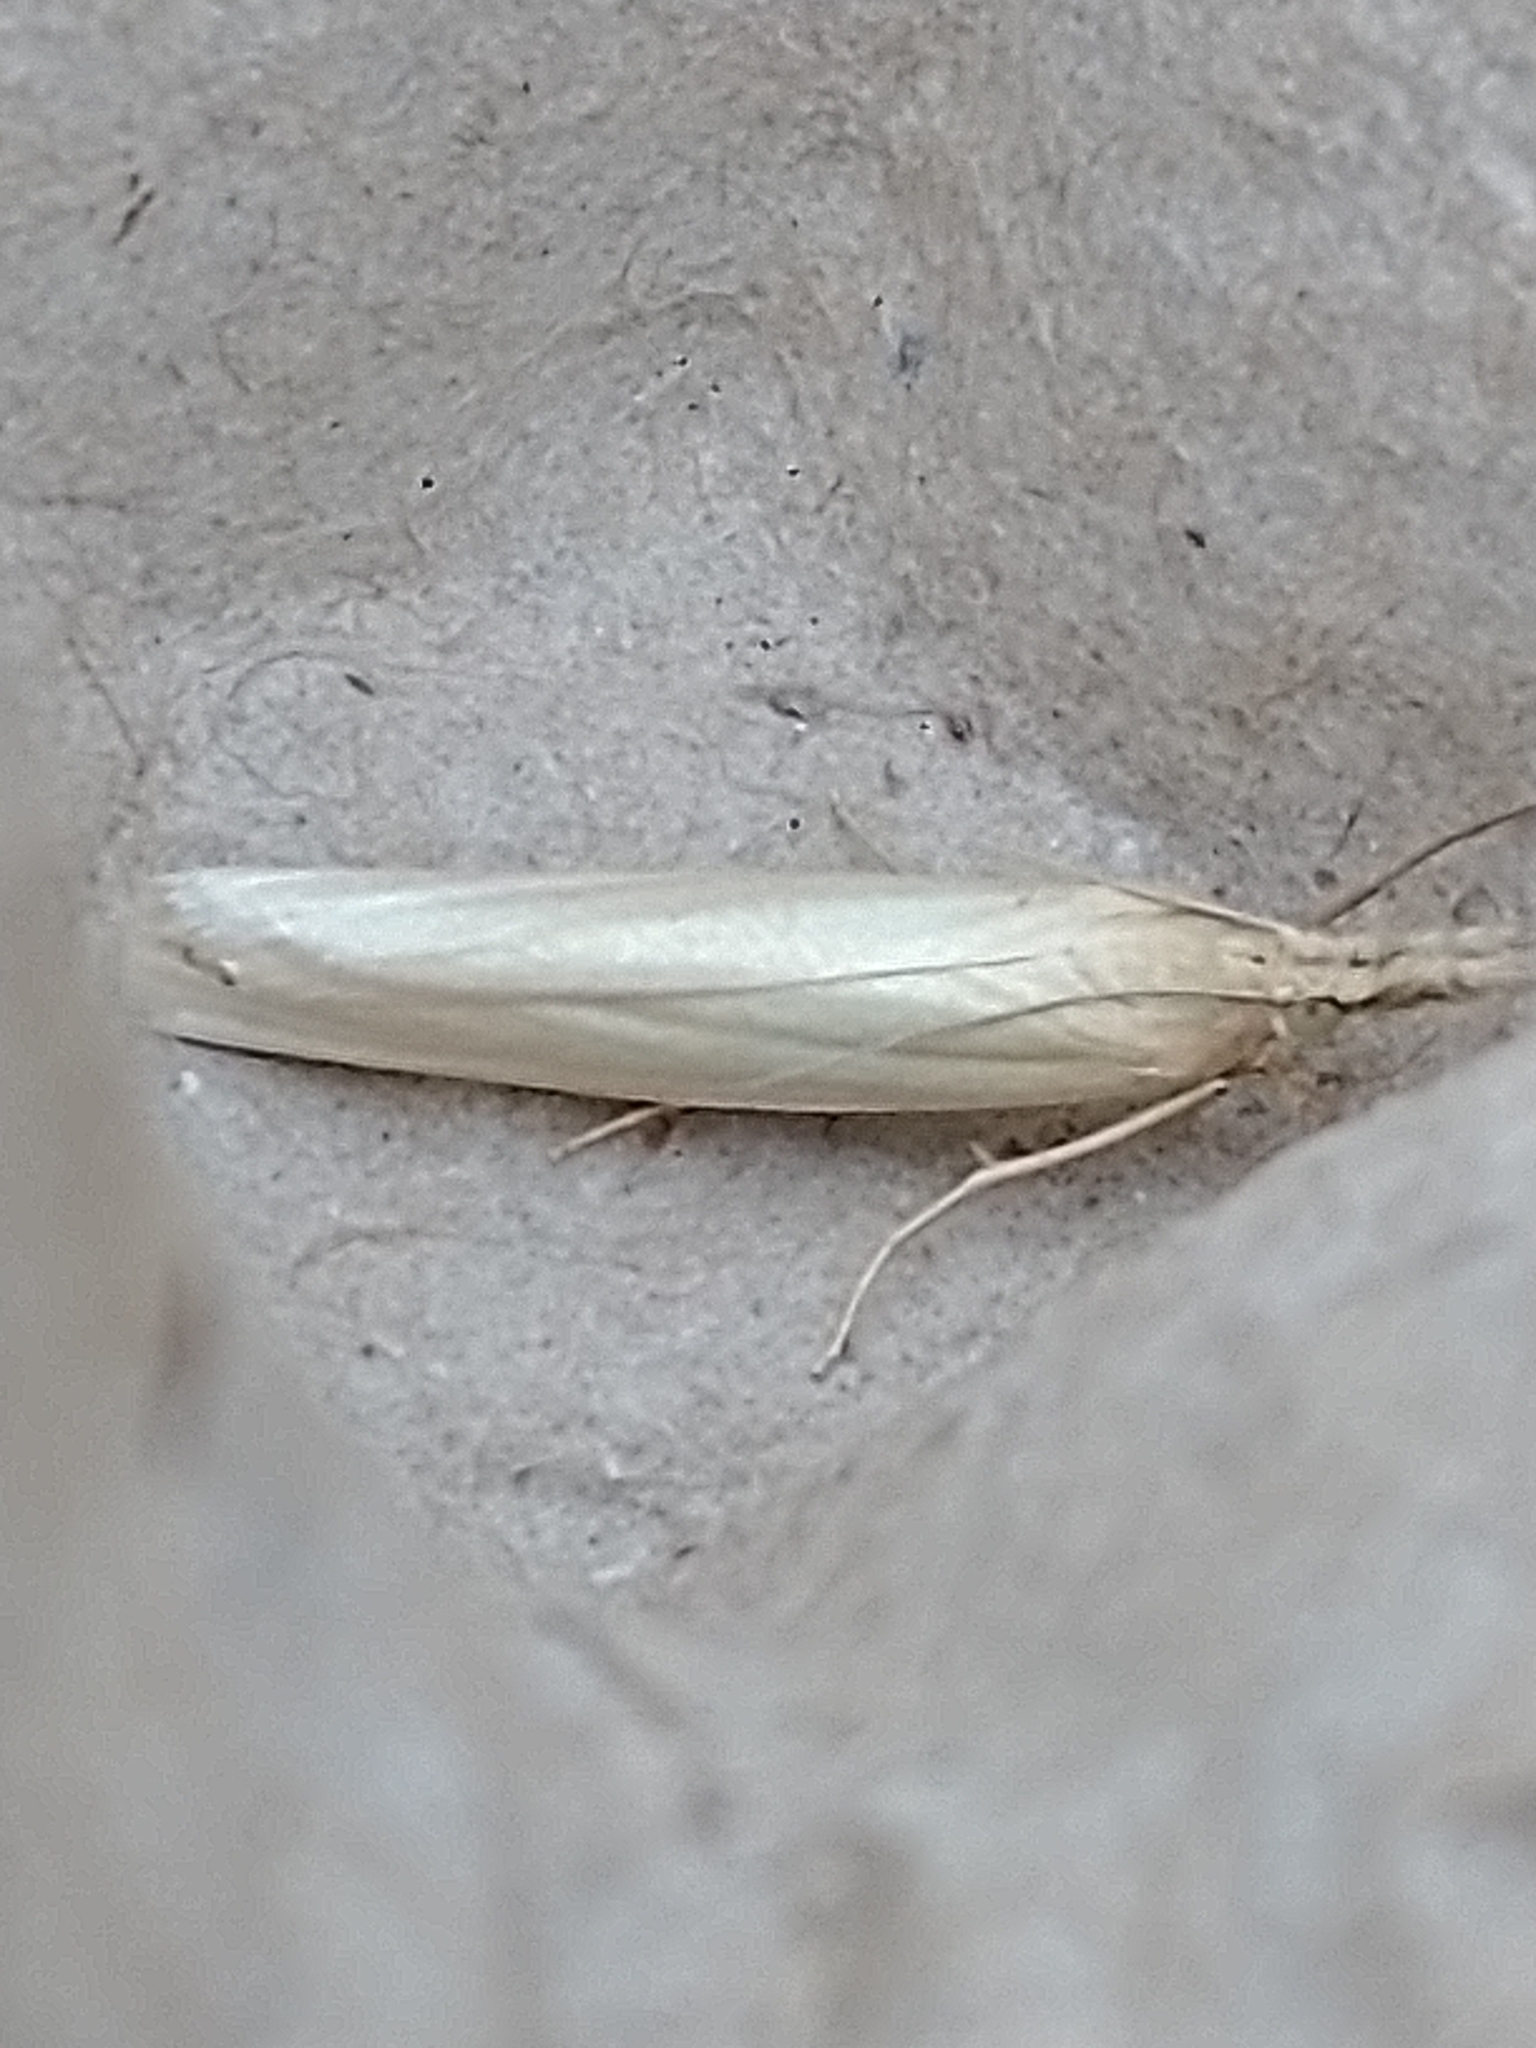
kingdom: Animalia
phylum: Arthropoda
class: Insecta
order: Lepidoptera
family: Crambidae
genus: Crambus
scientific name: Crambus perlellus
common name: Yellow satin veneer
